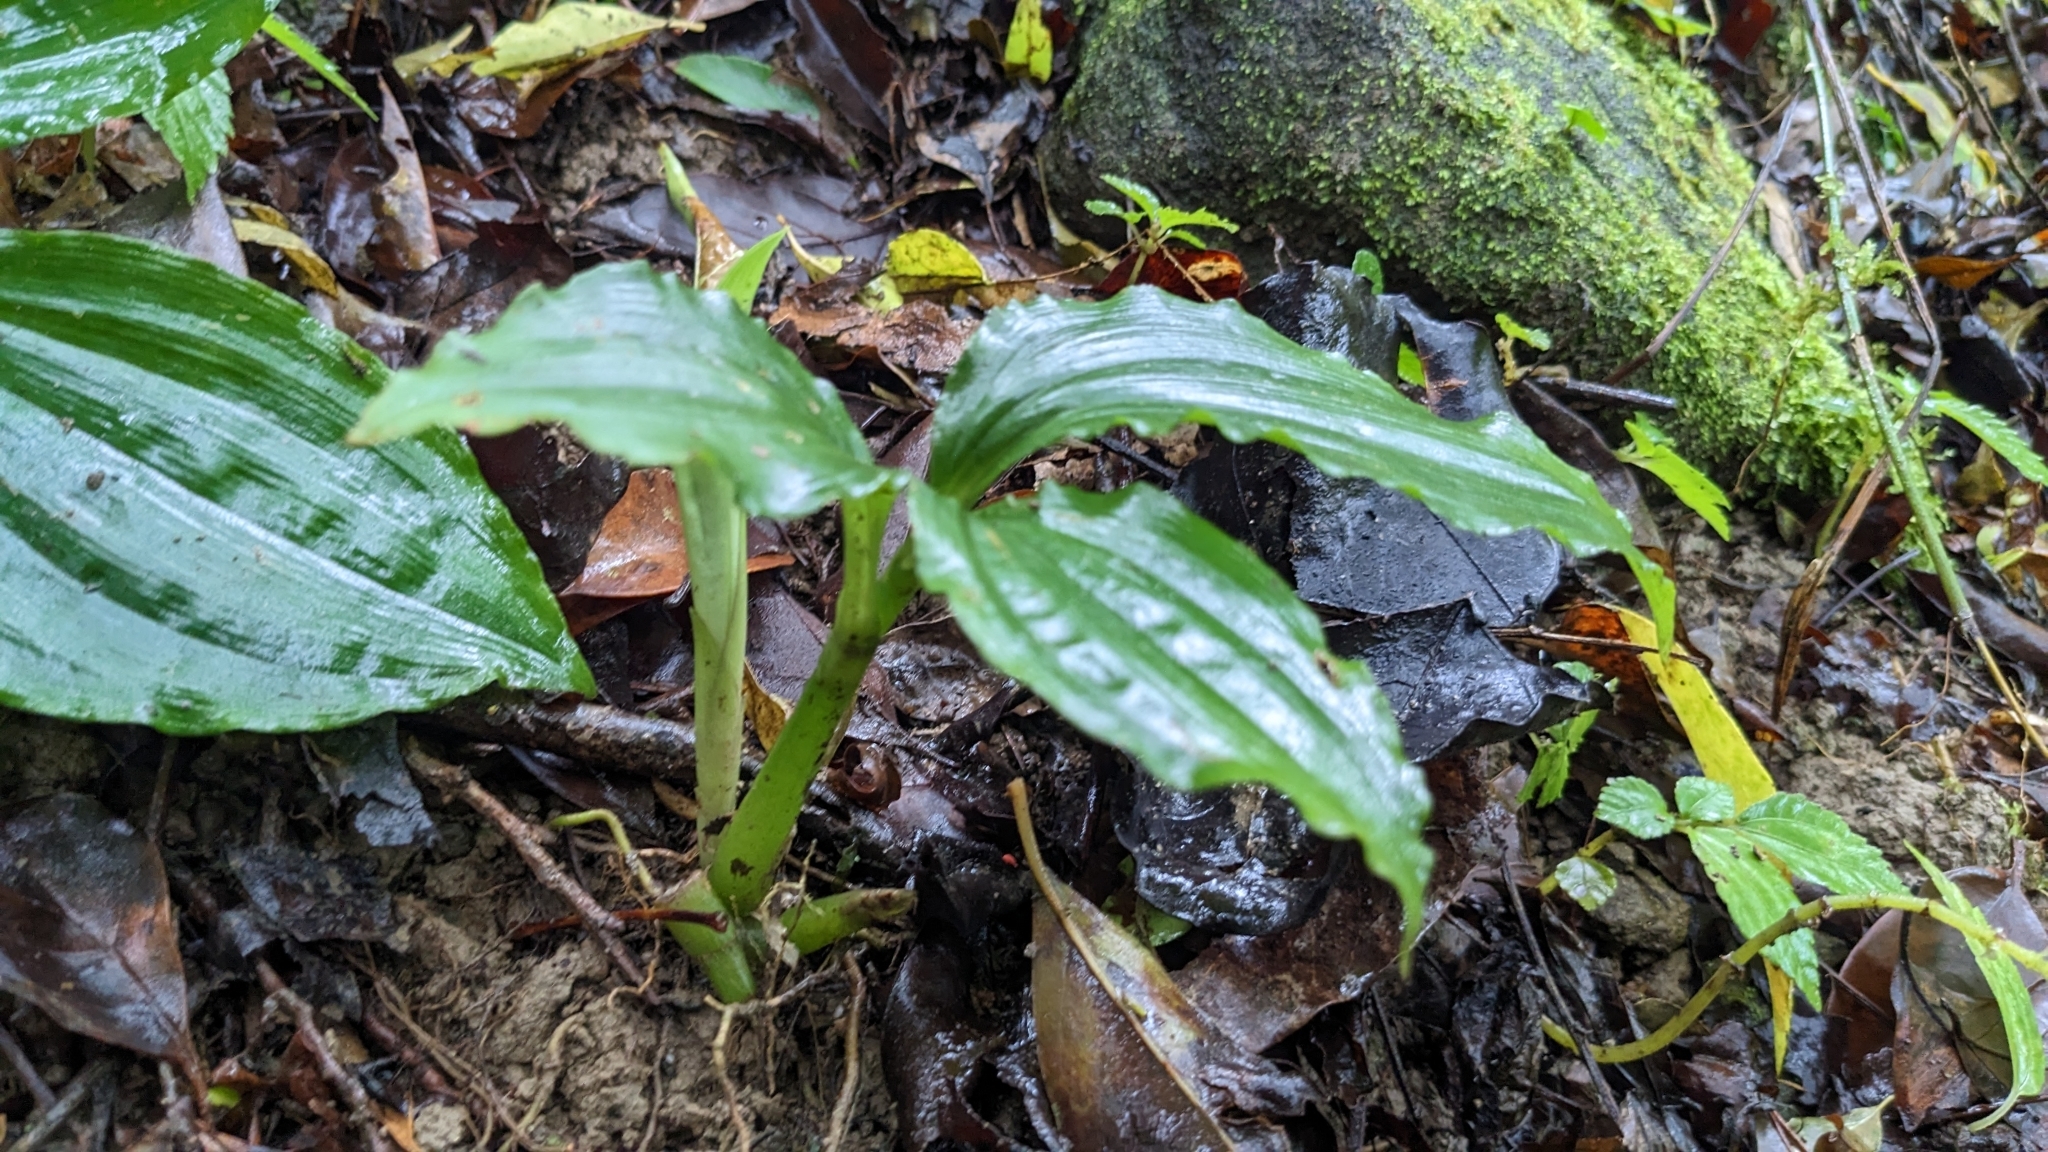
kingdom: Plantae
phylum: Tracheophyta
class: Liliopsida
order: Asparagales
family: Orchidaceae
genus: Liparis
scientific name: Liparis formosana
